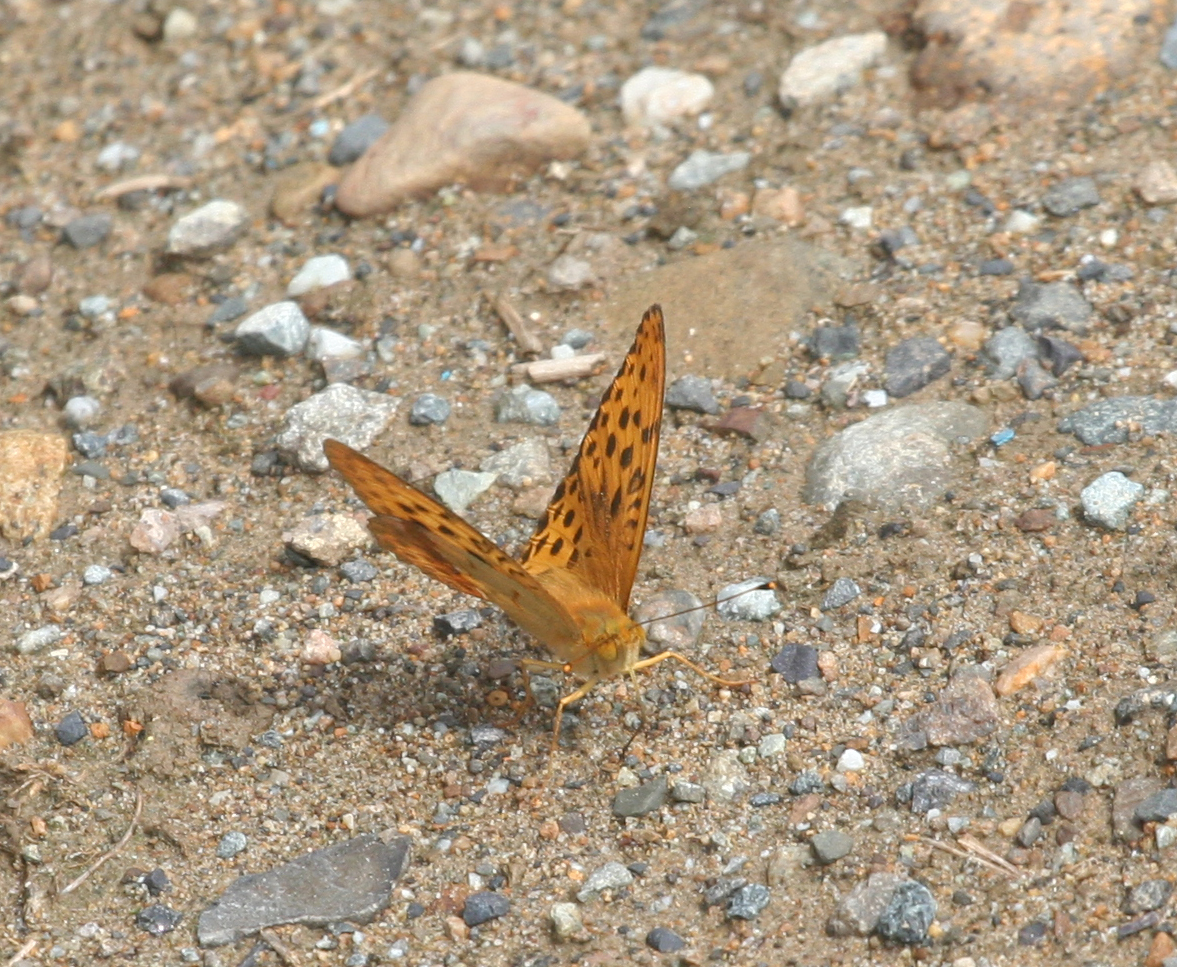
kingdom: Animalia
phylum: Arthropoda
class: Insecta
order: Lepidoptera
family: Nymphalidae
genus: Argyronome
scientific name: Argyronome laodice
